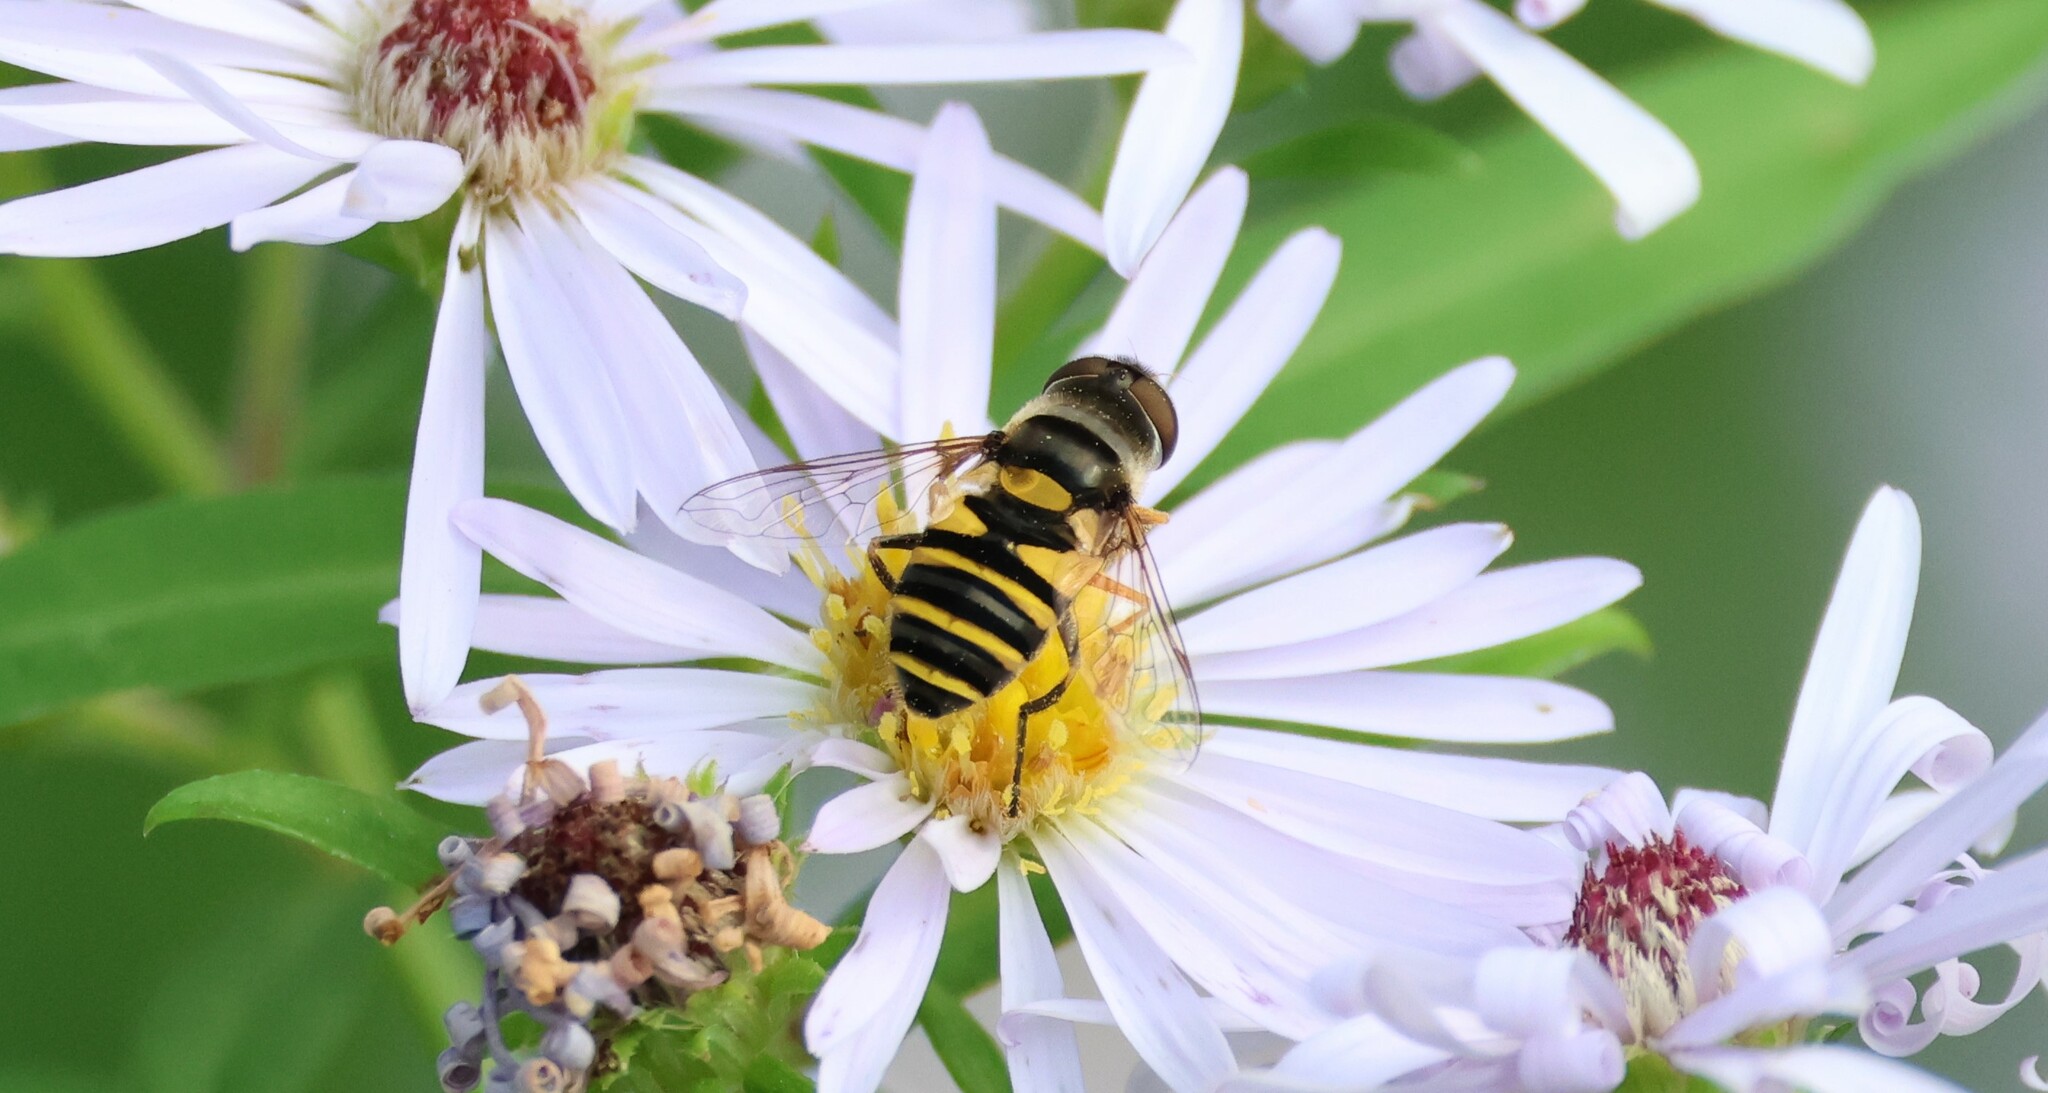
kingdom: Animalia
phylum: Arthropoda
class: Insecta
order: Diptera
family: Syrphidae
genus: Eristalis
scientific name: Eristalis transversa
